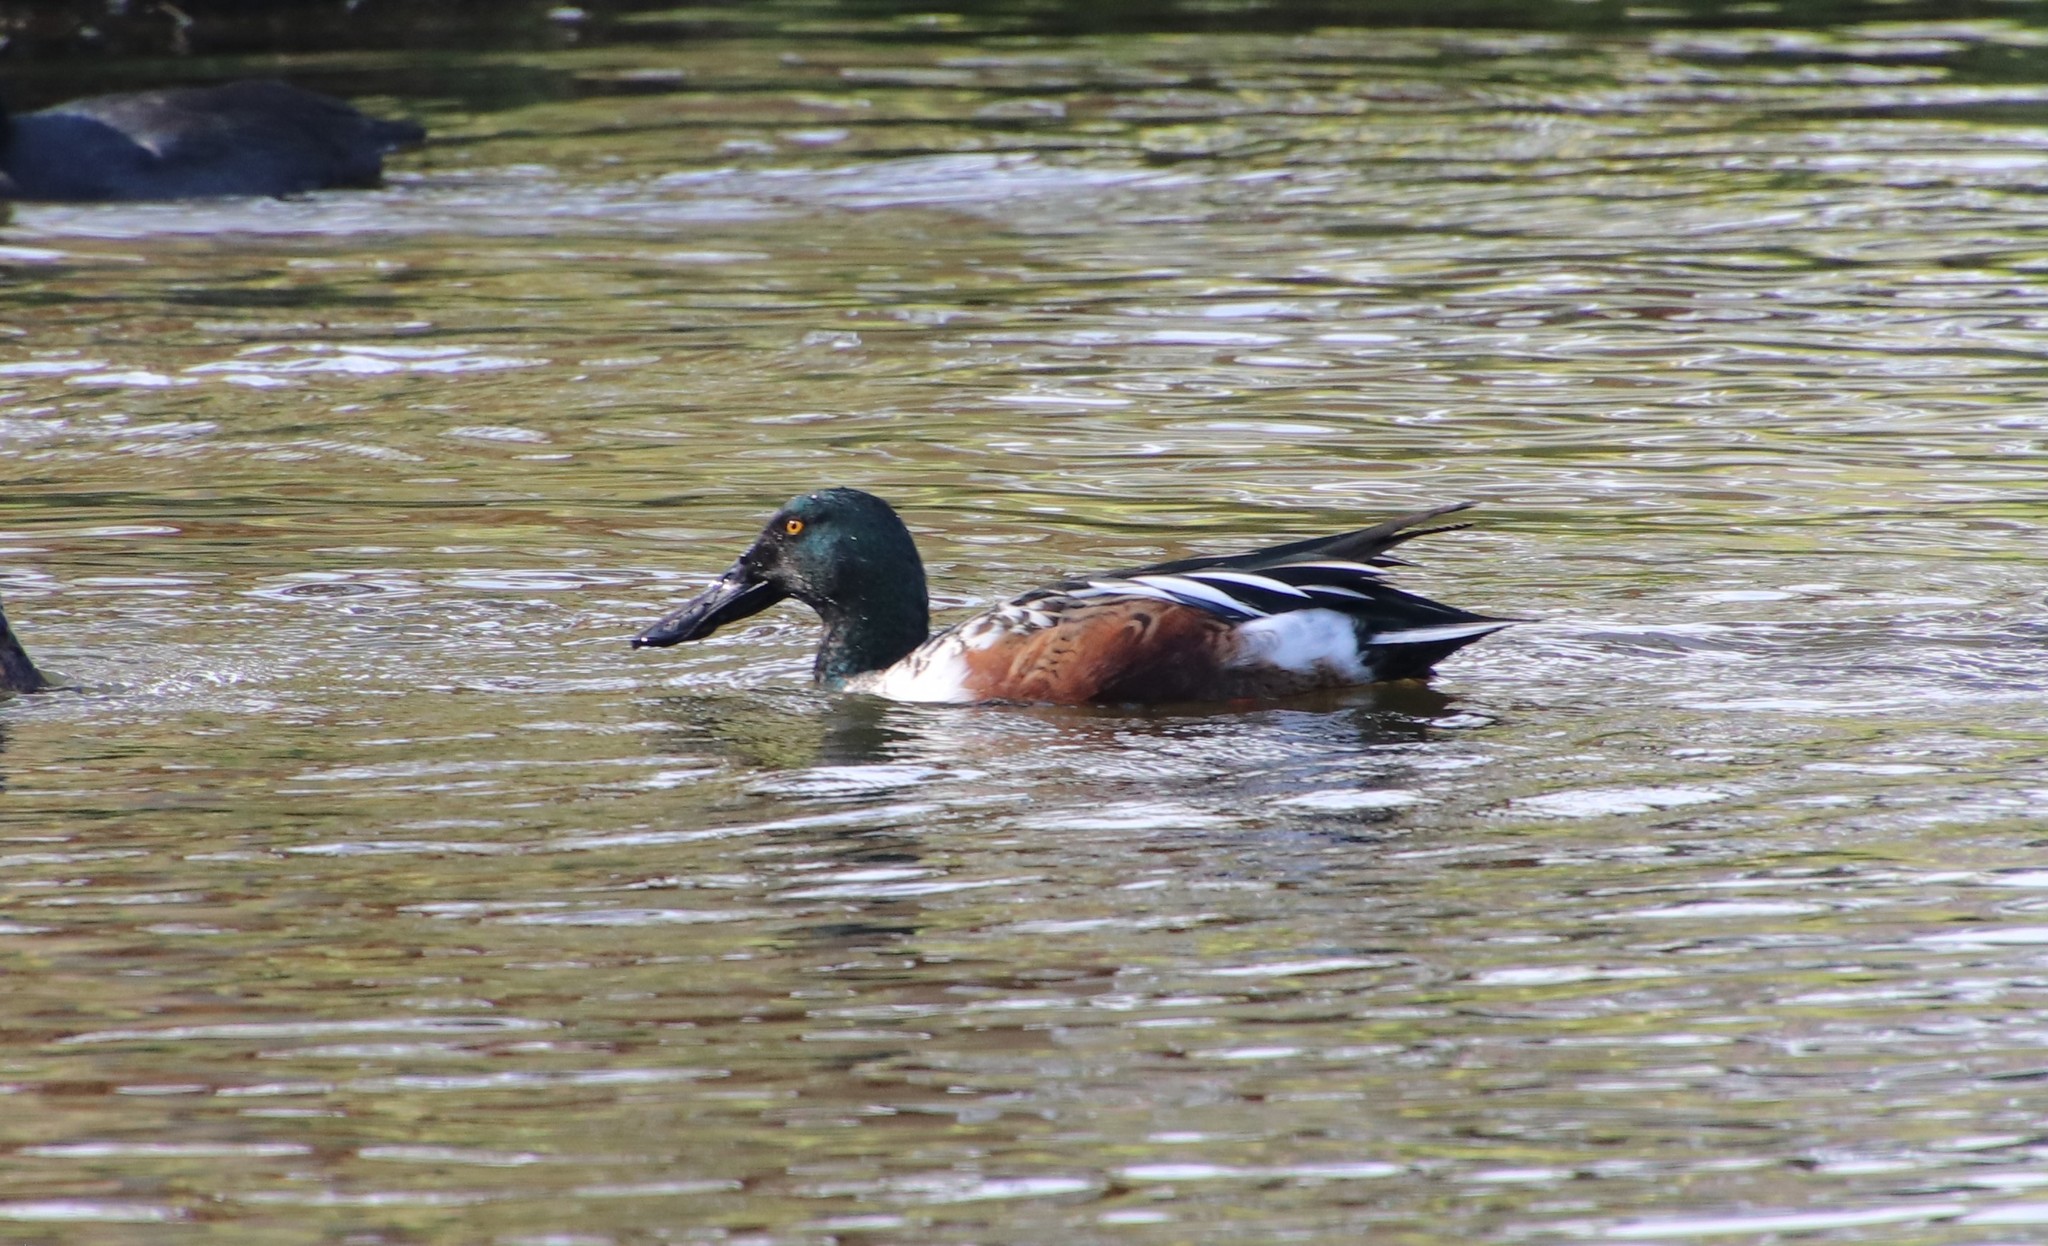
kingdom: Animalia
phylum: Chordata
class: Aves
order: Anseriformes
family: Anatidae
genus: Spatula
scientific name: Spatula clypeata
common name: Northern shoveler
